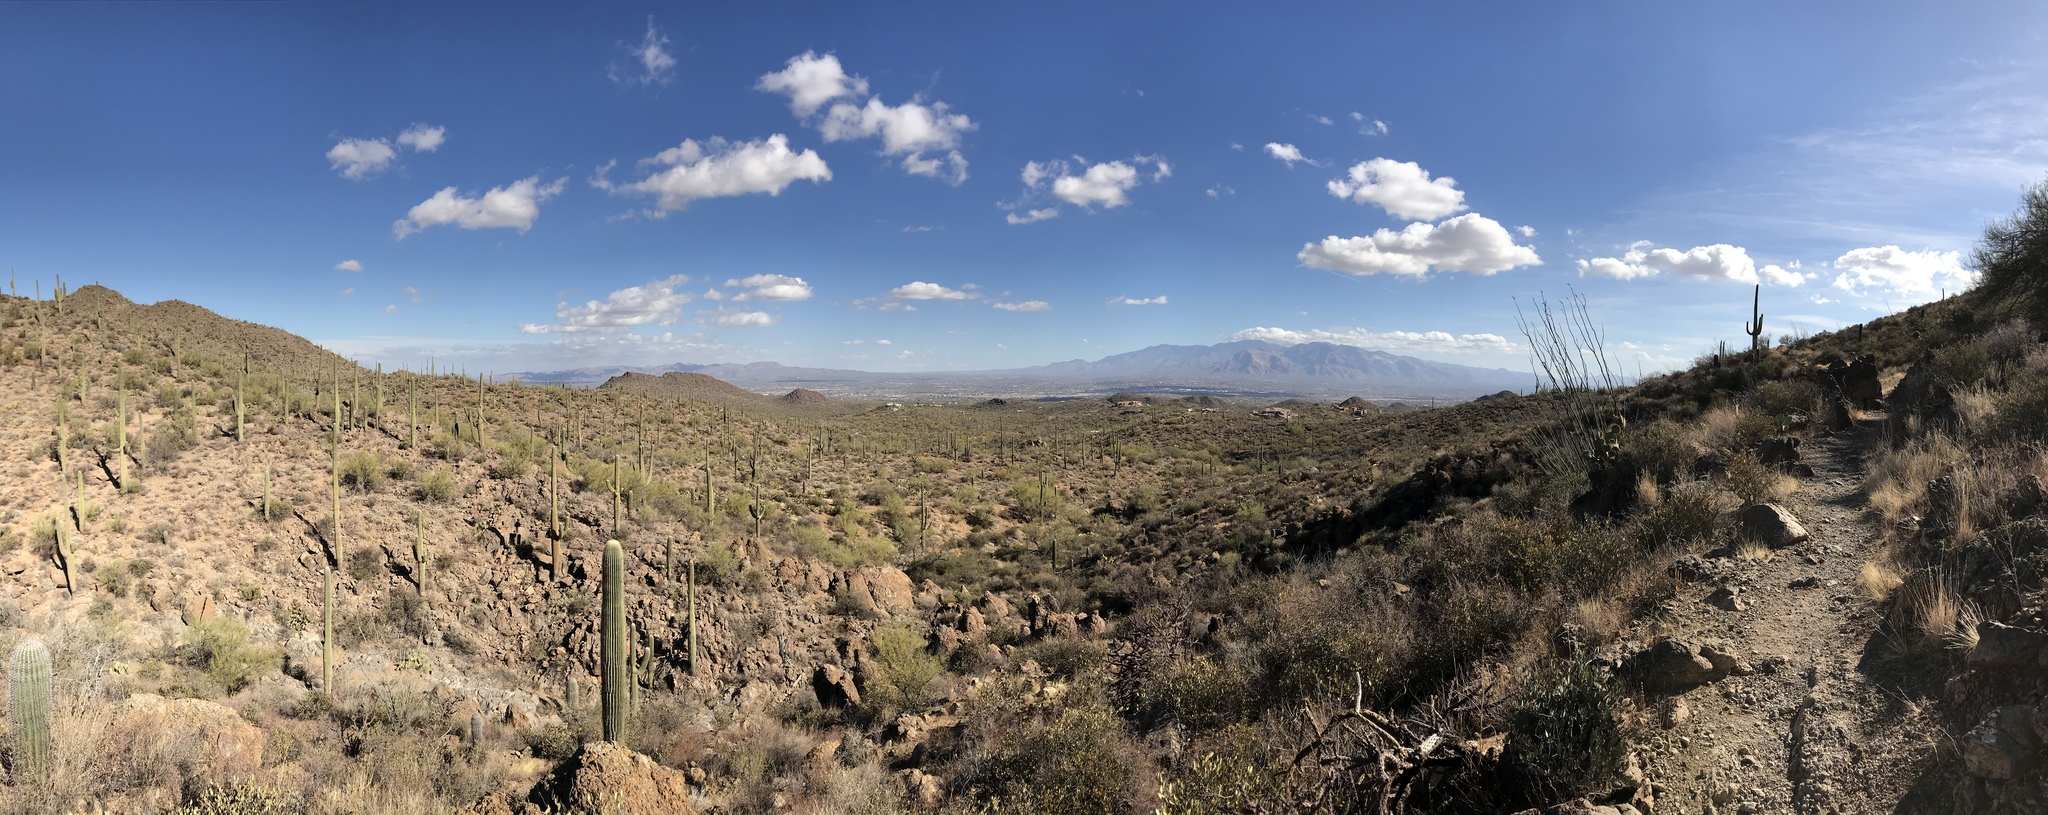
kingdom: Plantae
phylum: Tracheophyta
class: Magnoliopsida
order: Caryophyllales
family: Cactaceae
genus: Carnegiea
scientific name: Carnegiea gigantea
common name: Saguaro
